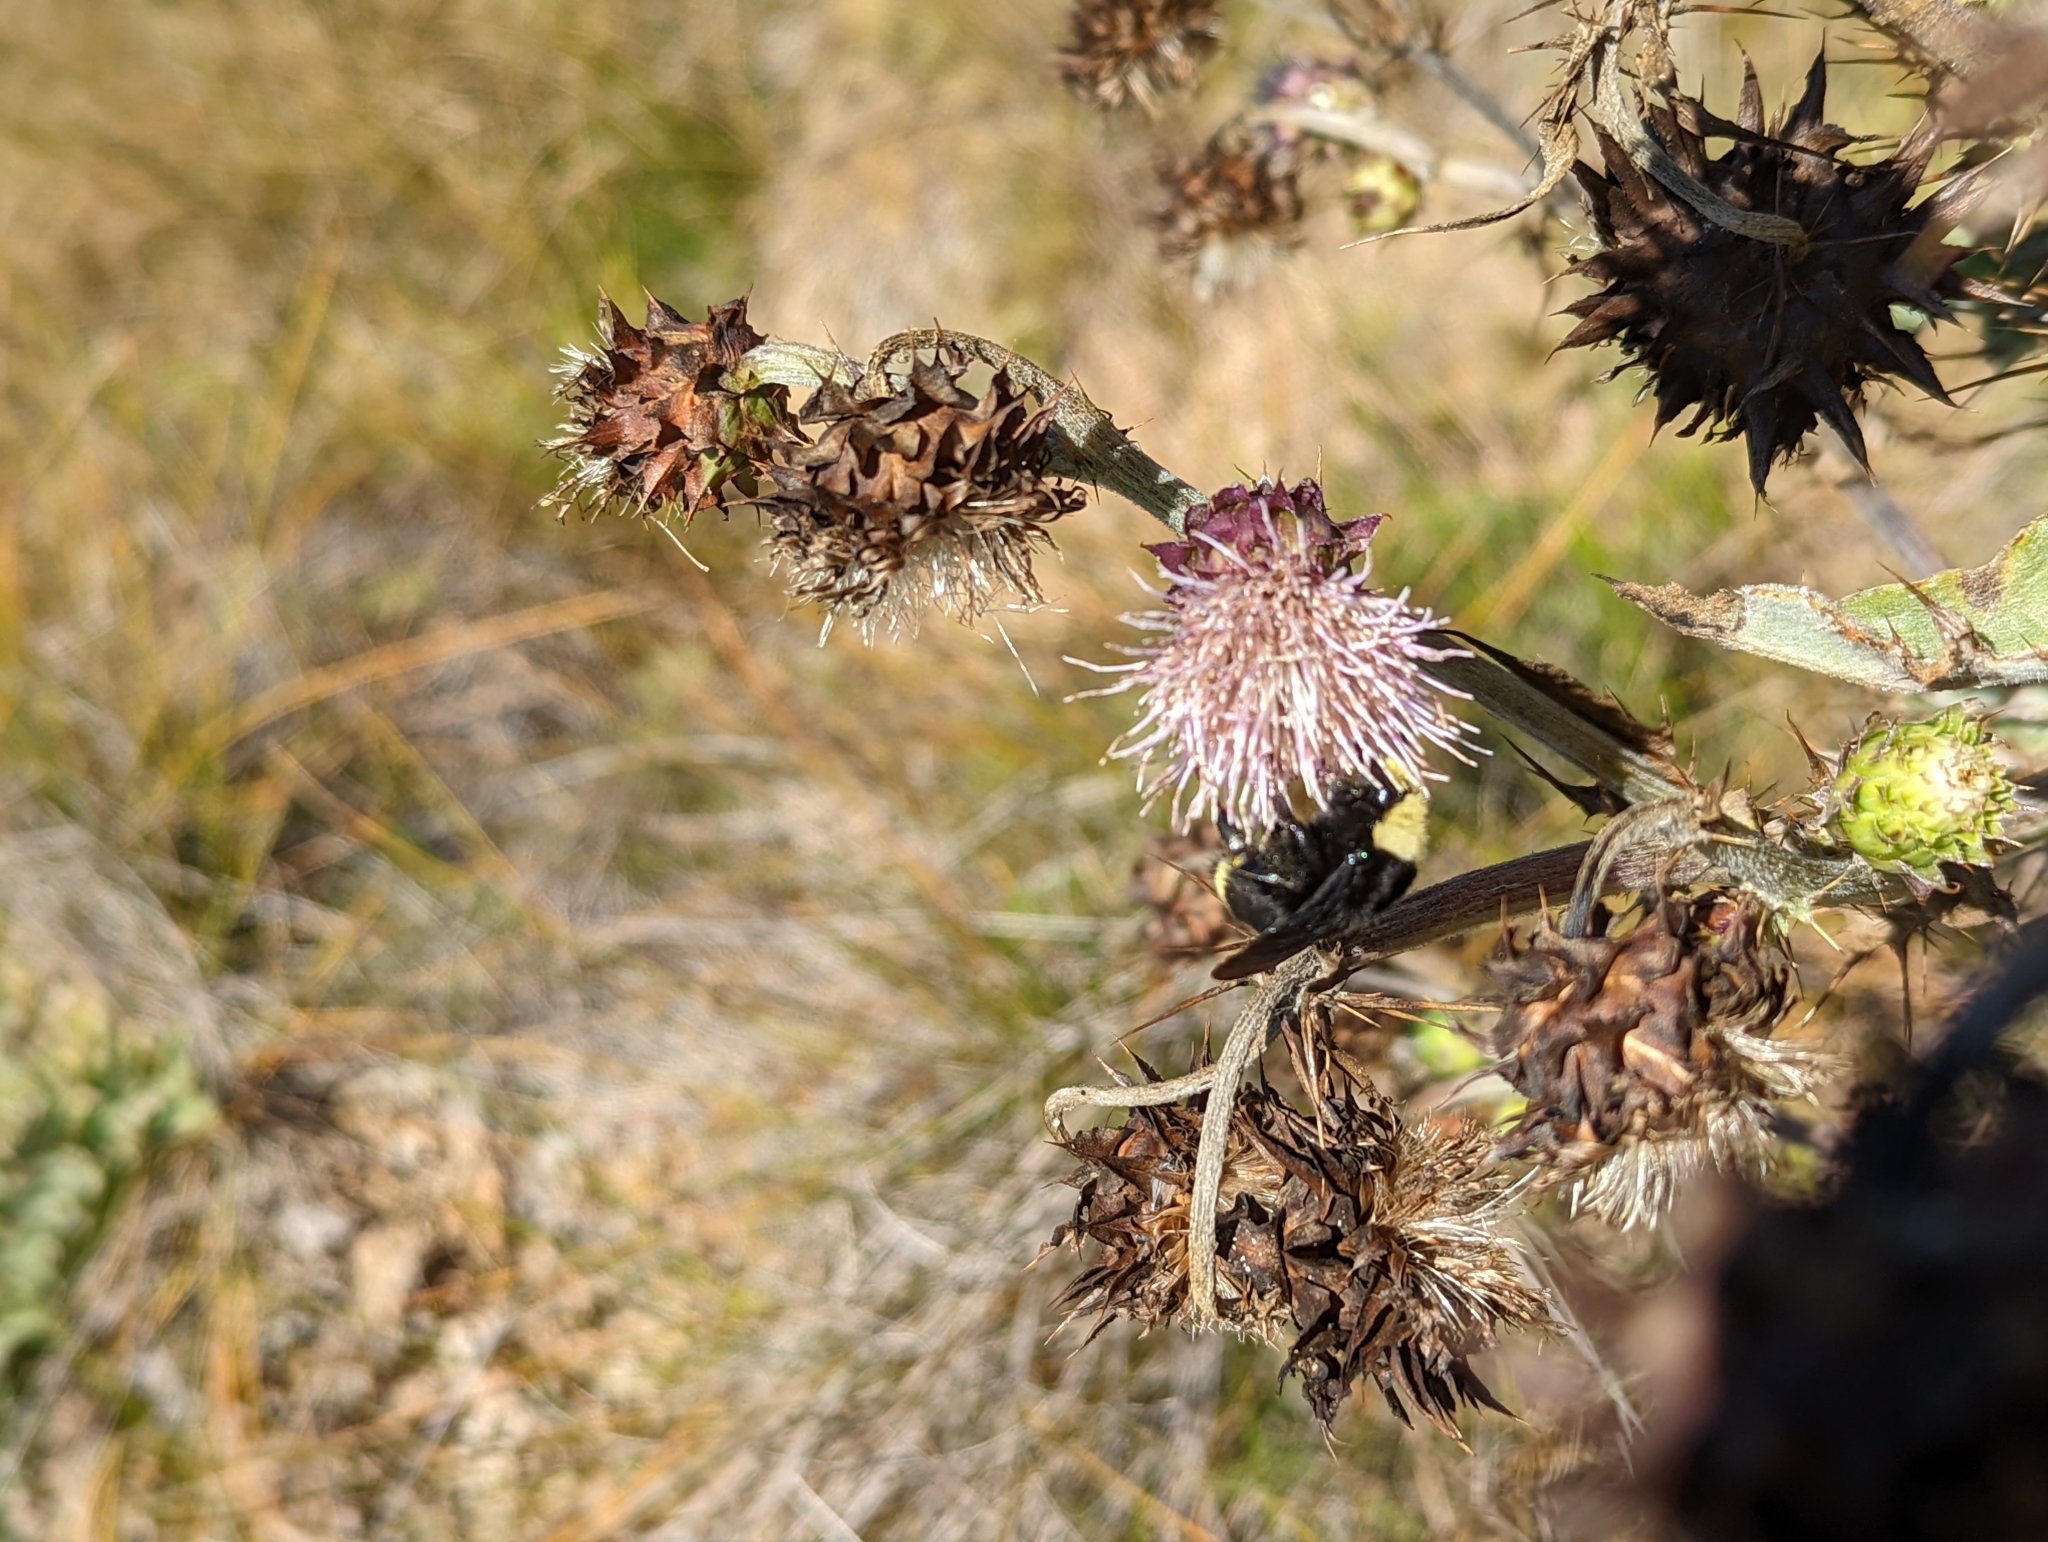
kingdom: Animalia
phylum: Arthropoda
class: Insecta
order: Hymenoptera
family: Apidae
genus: Bombus
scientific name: Bombus vosnesenskii
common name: Vosnesensky bumble bee
